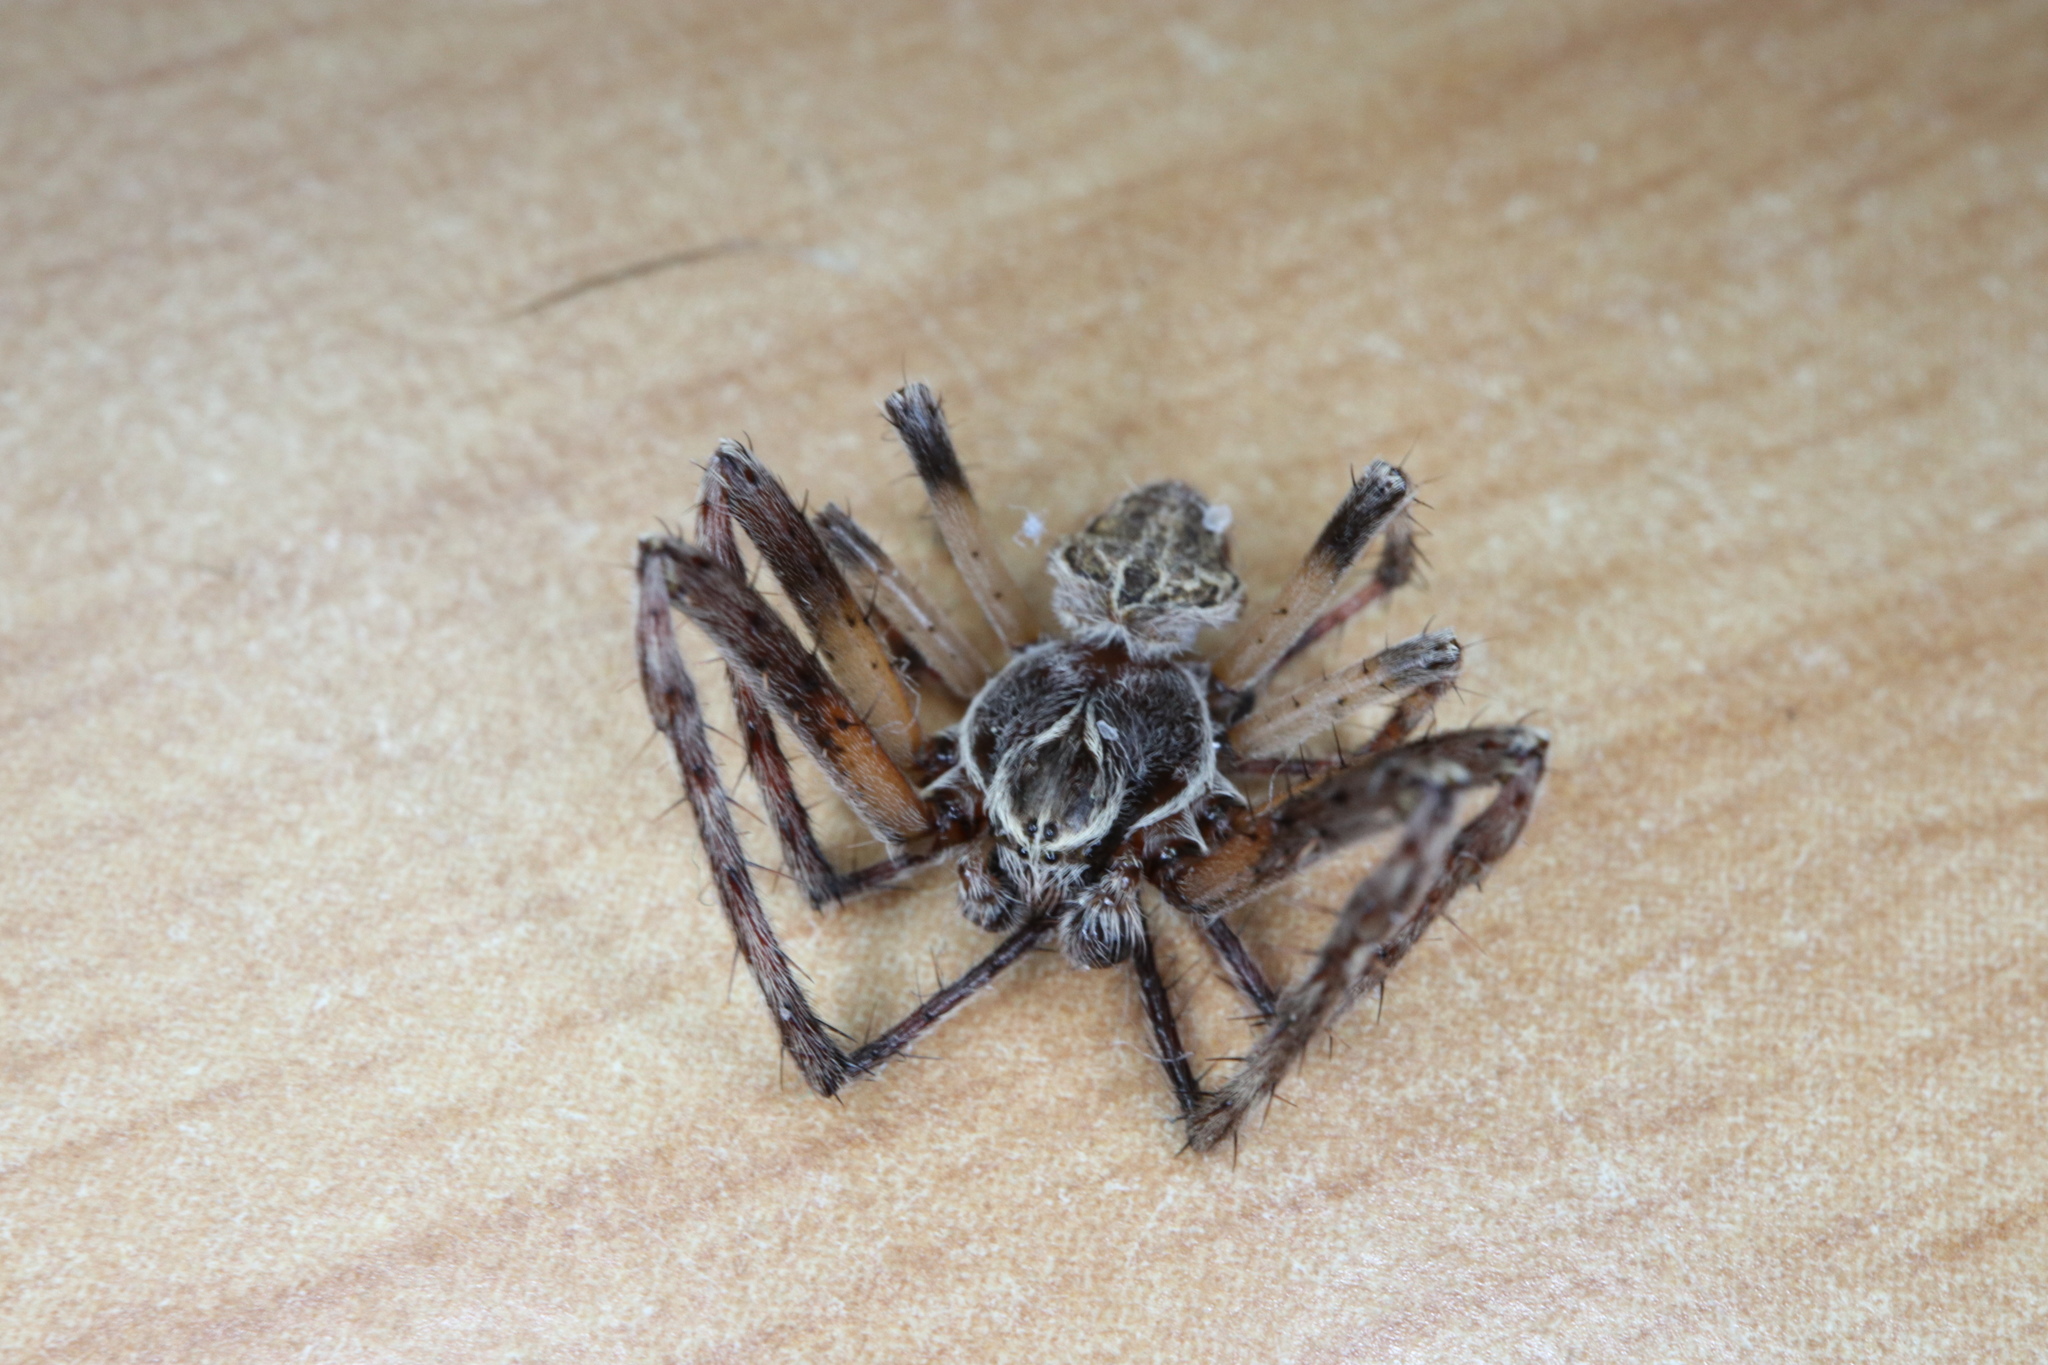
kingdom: Animalia
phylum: Arthropoda
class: Arachnida
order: Araneae
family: Araneidae
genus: Larinioides
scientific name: Larinioides sclopetarius
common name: Bridge orbweaver
